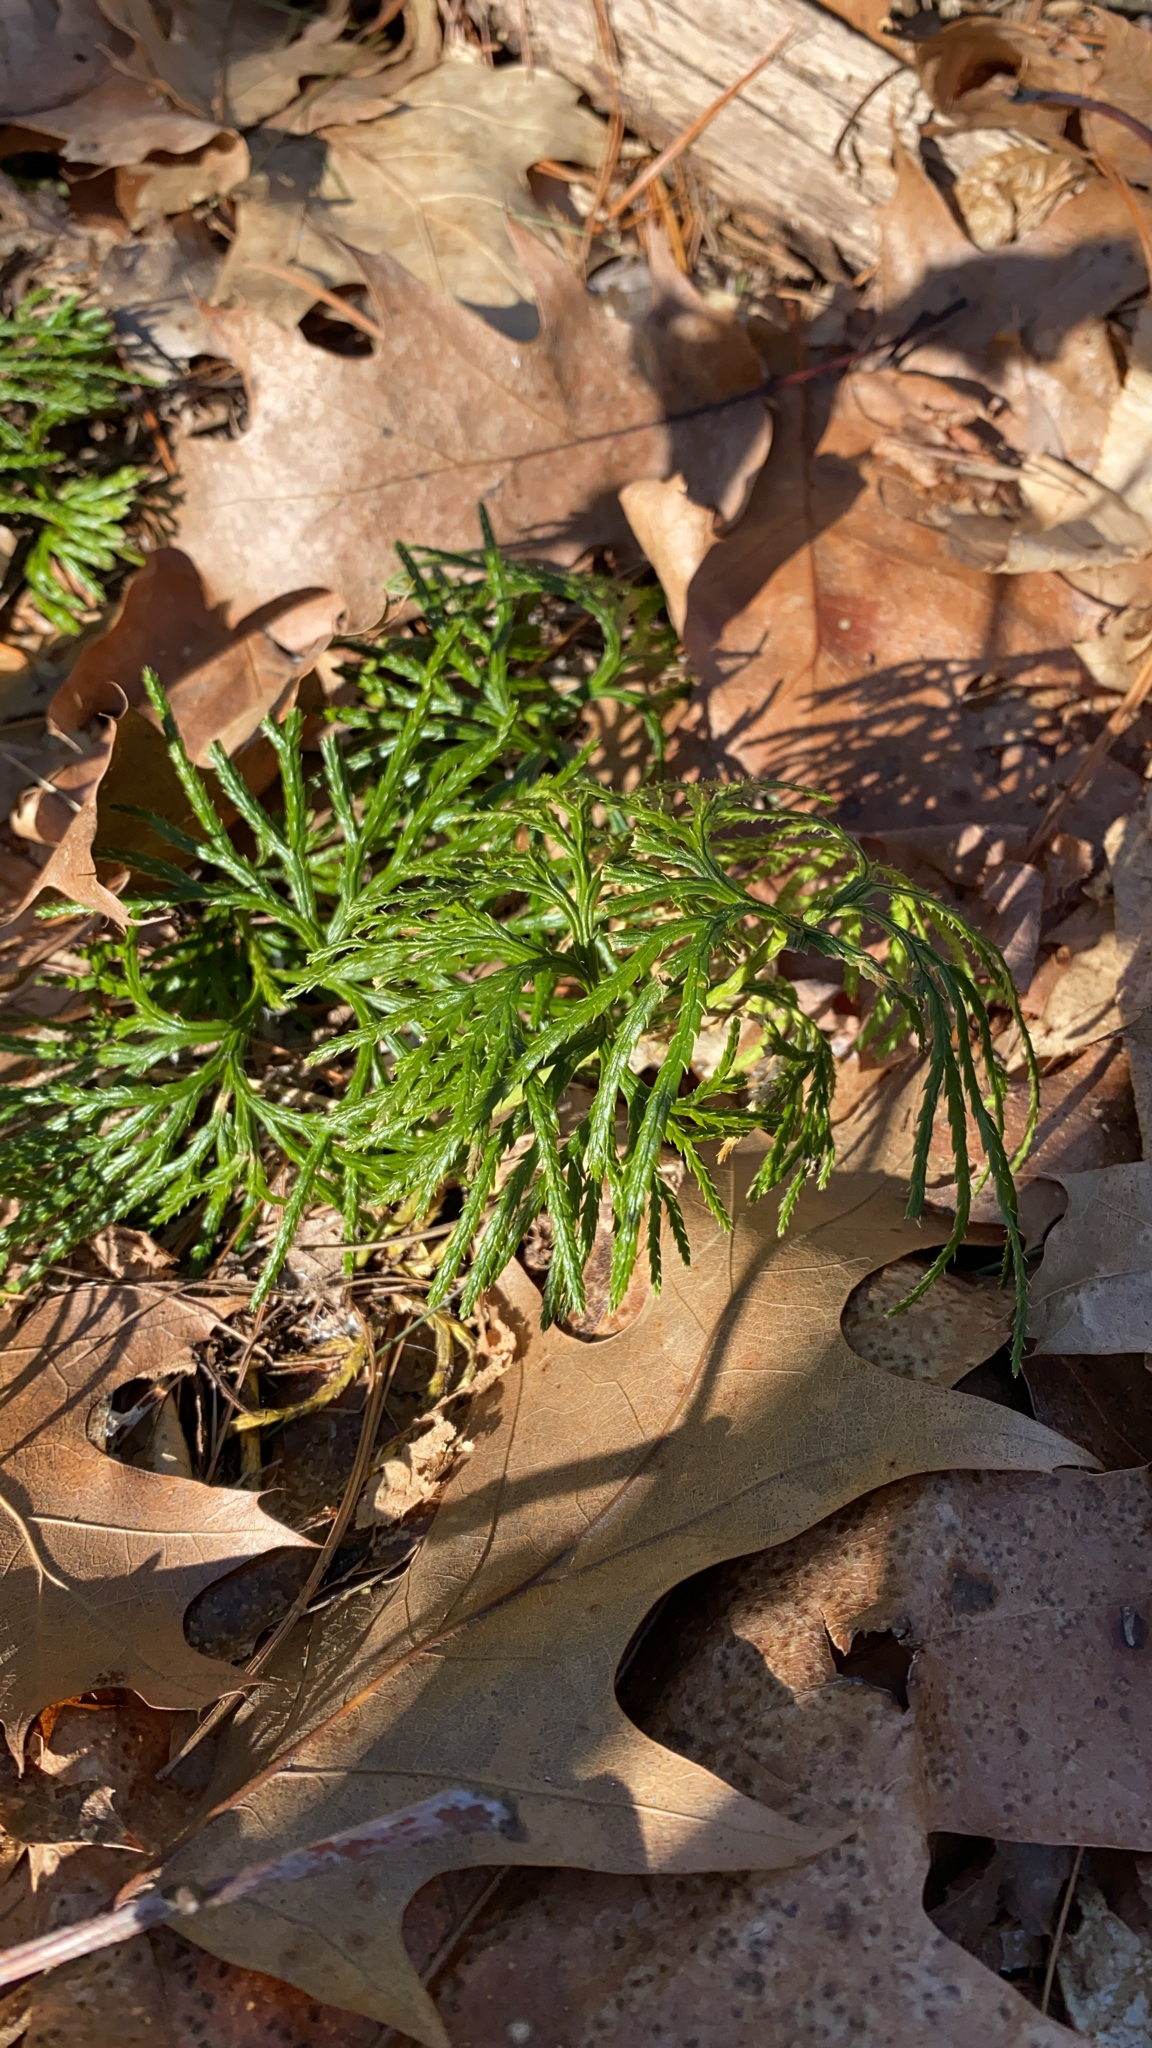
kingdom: Plantae
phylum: Tracheophyta
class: Lycopodiopsida
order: Lycopodiales
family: Lycopodiaceae
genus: Diphasiastrum
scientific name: Diphasiastrum digitatum
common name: Southern running-pine
